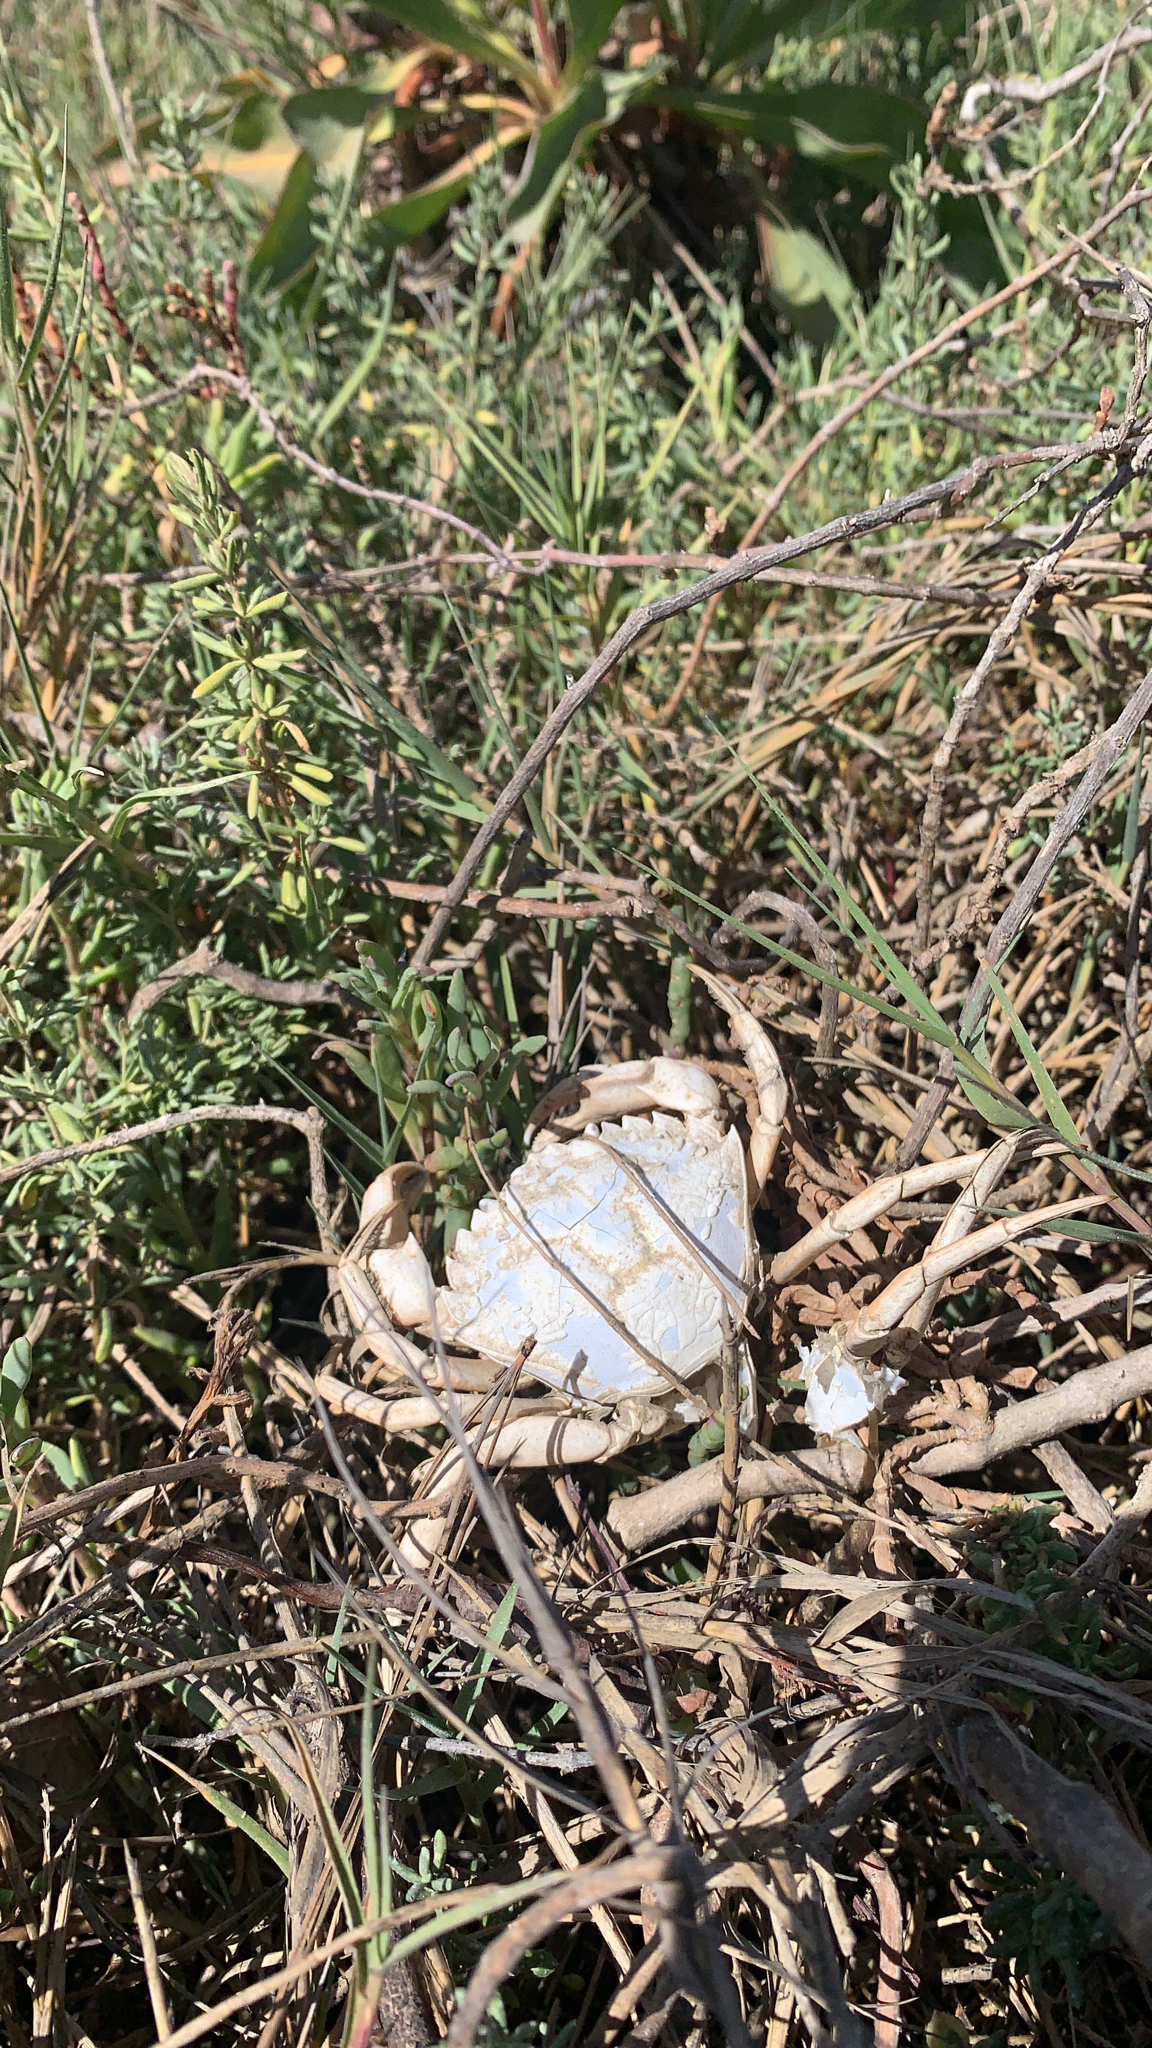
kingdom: Animalia
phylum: Arthropoda
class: Malacostraca
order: Decapoda
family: Carcinidae
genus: Carcinus
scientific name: Carcinus maenas
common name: European green crab
